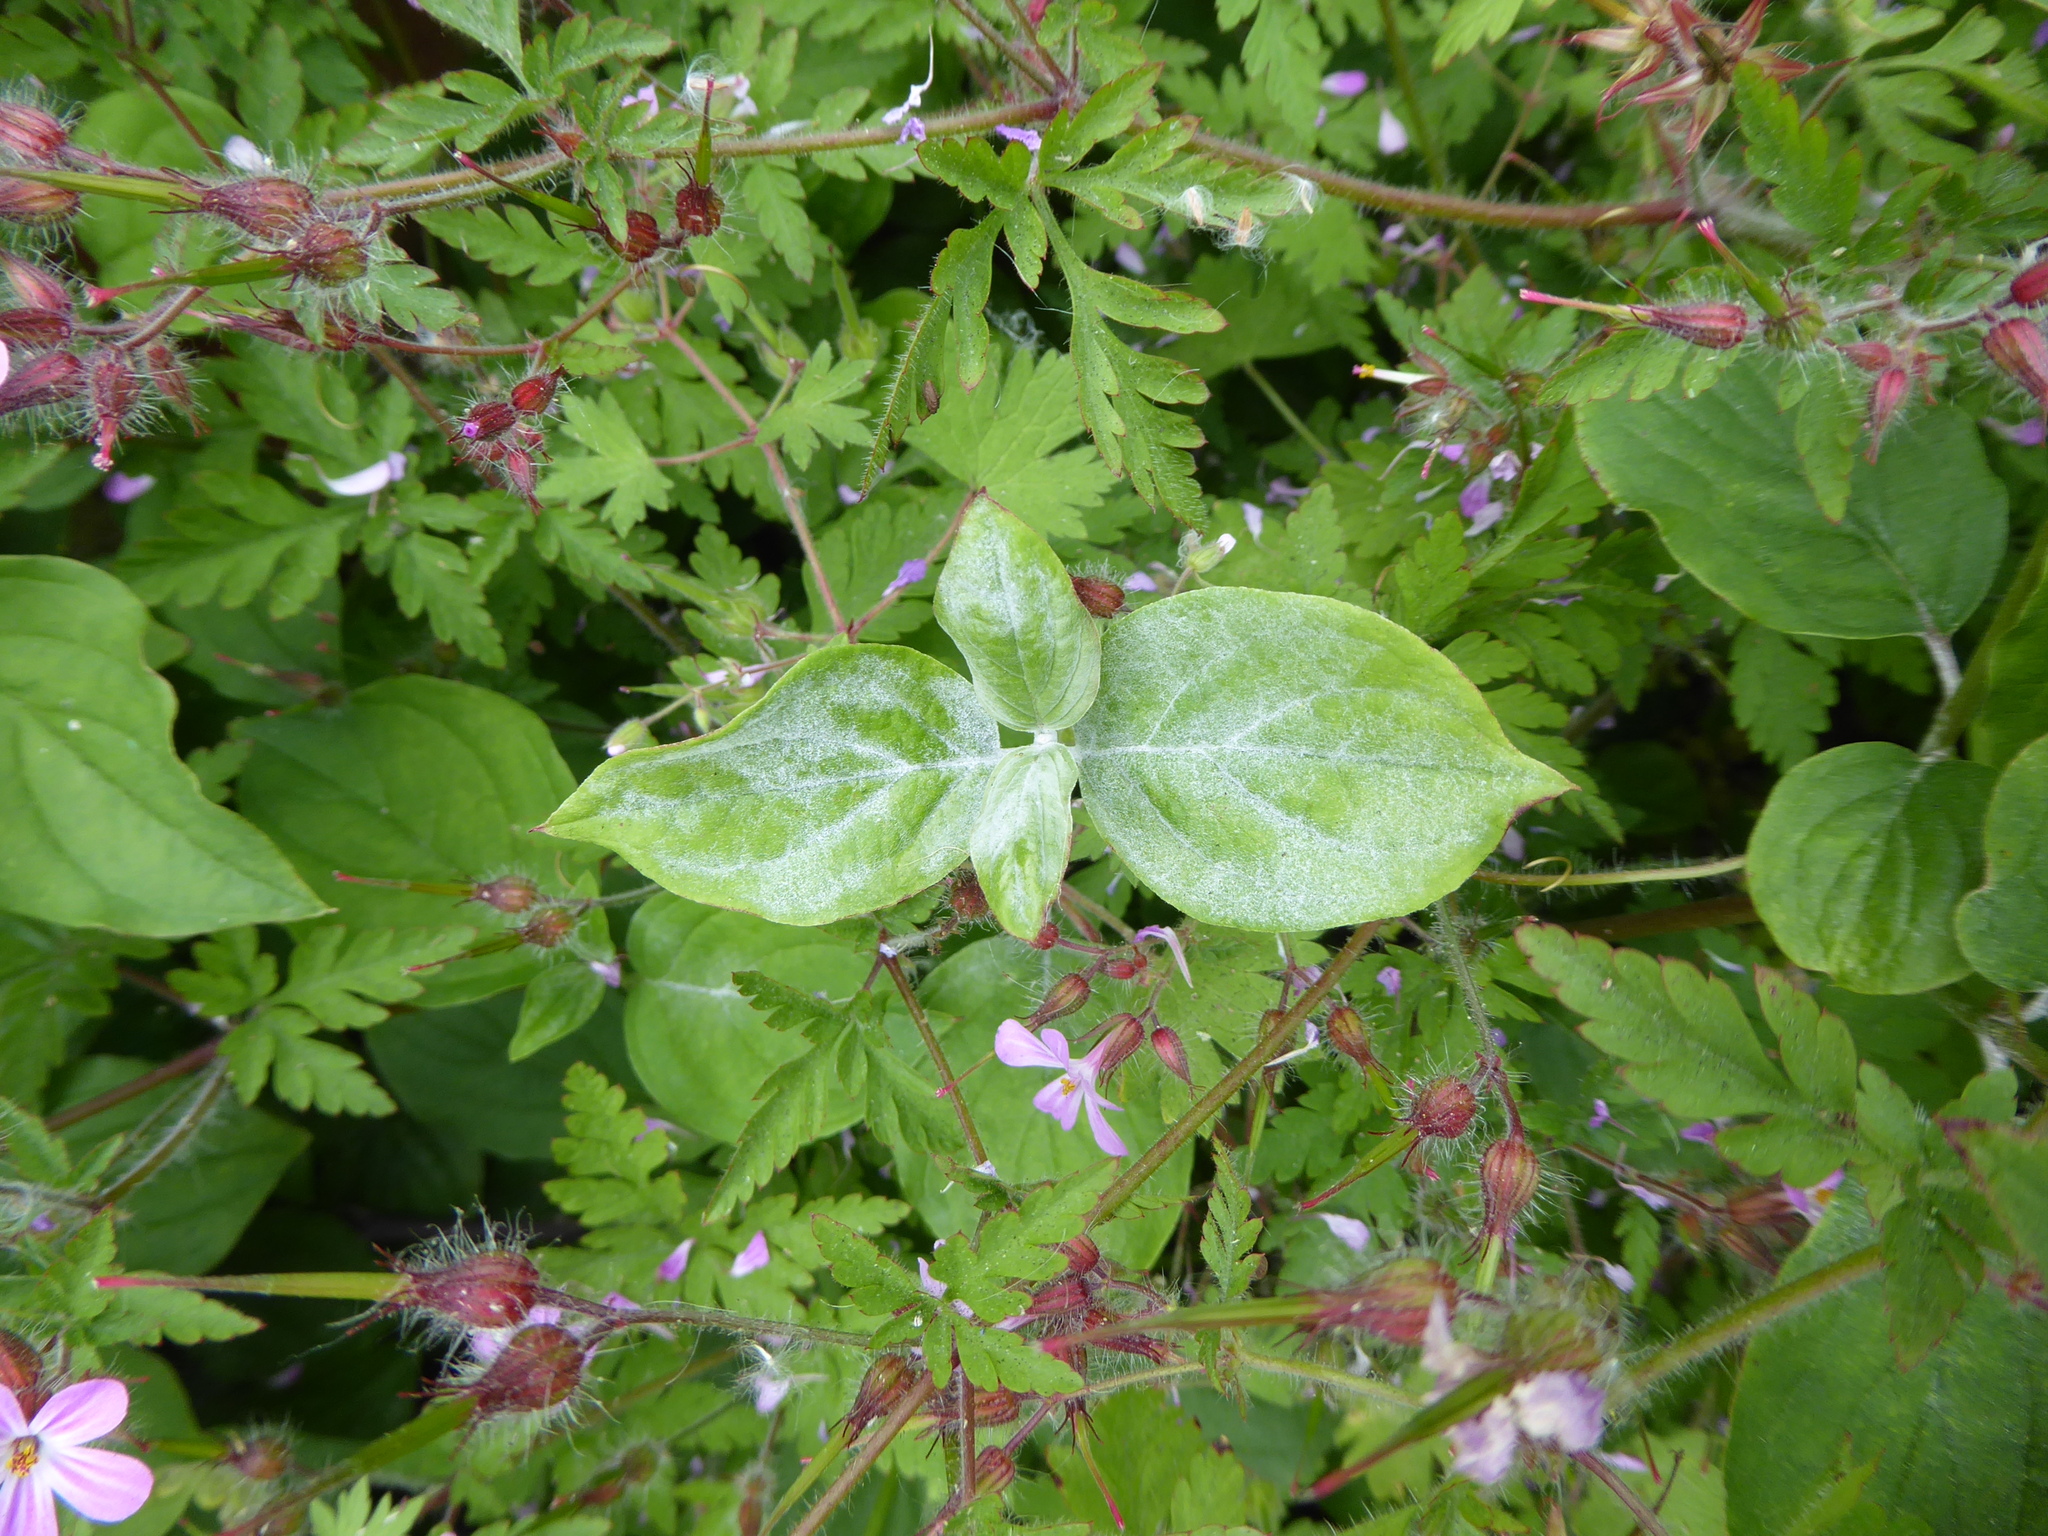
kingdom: Fungi
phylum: Ascomycota
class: Leotiomycetes
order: Helotiales
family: Erysiphaceae
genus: Erysiphe
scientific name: Erysiphe tortilis
